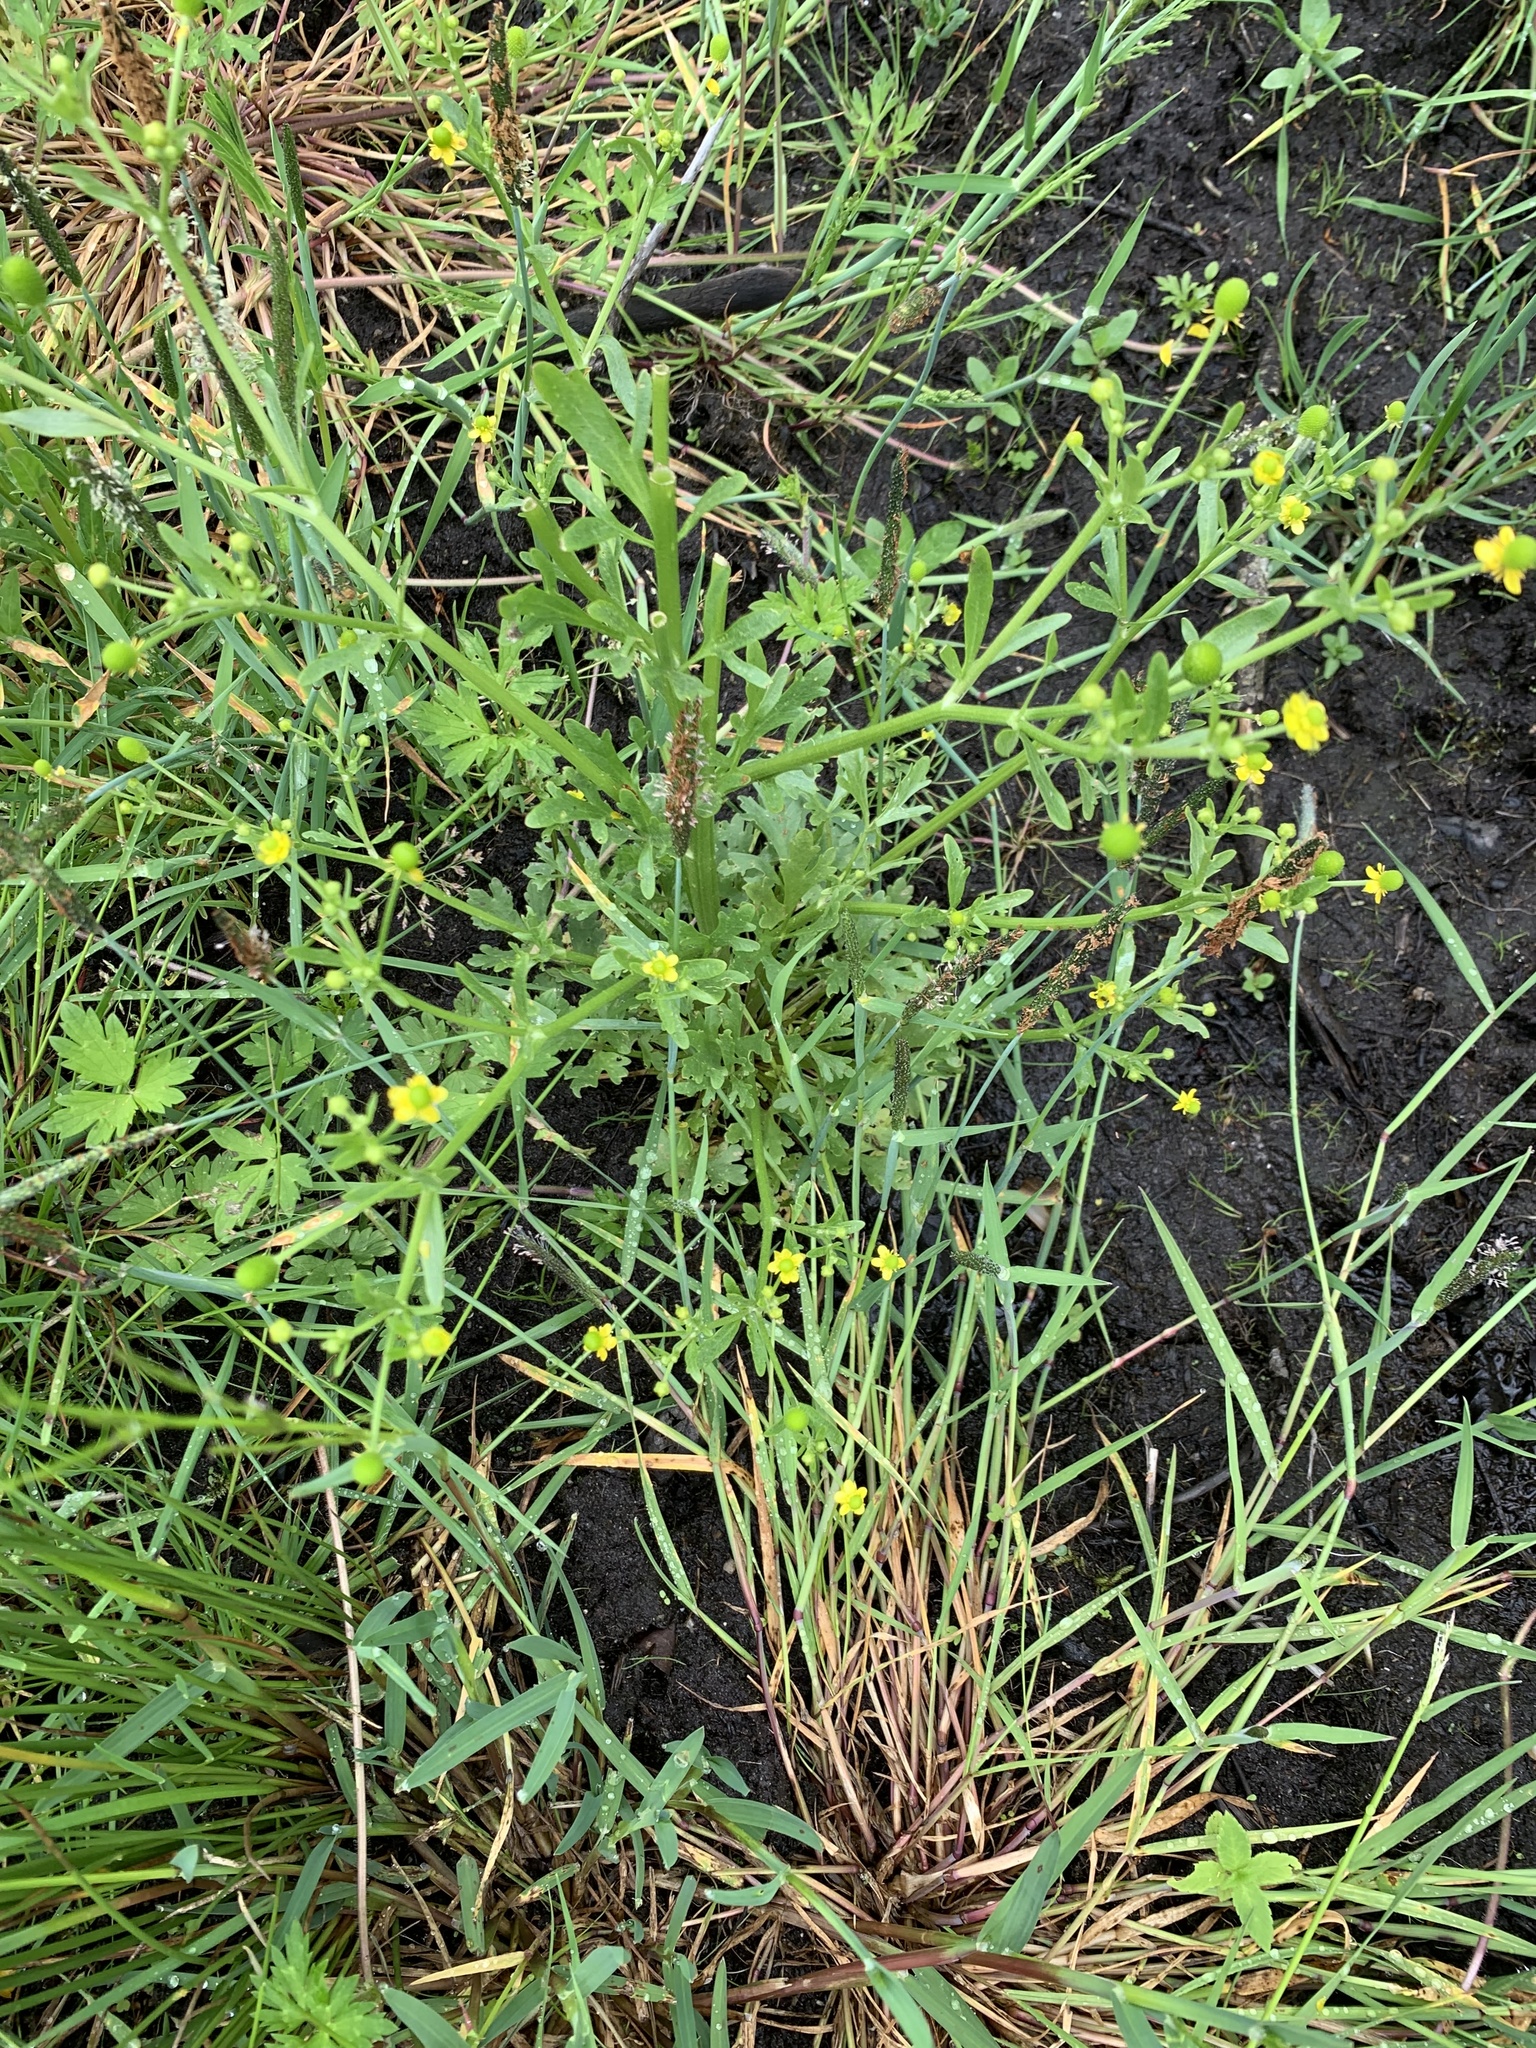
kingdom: Plantae
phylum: Tracheophyta
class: Magnoliopsida
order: Ranunculales
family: Ranunculaceae
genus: Ranunculus
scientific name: Ranunculus sceleratus
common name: Celery-leaved buttercup
